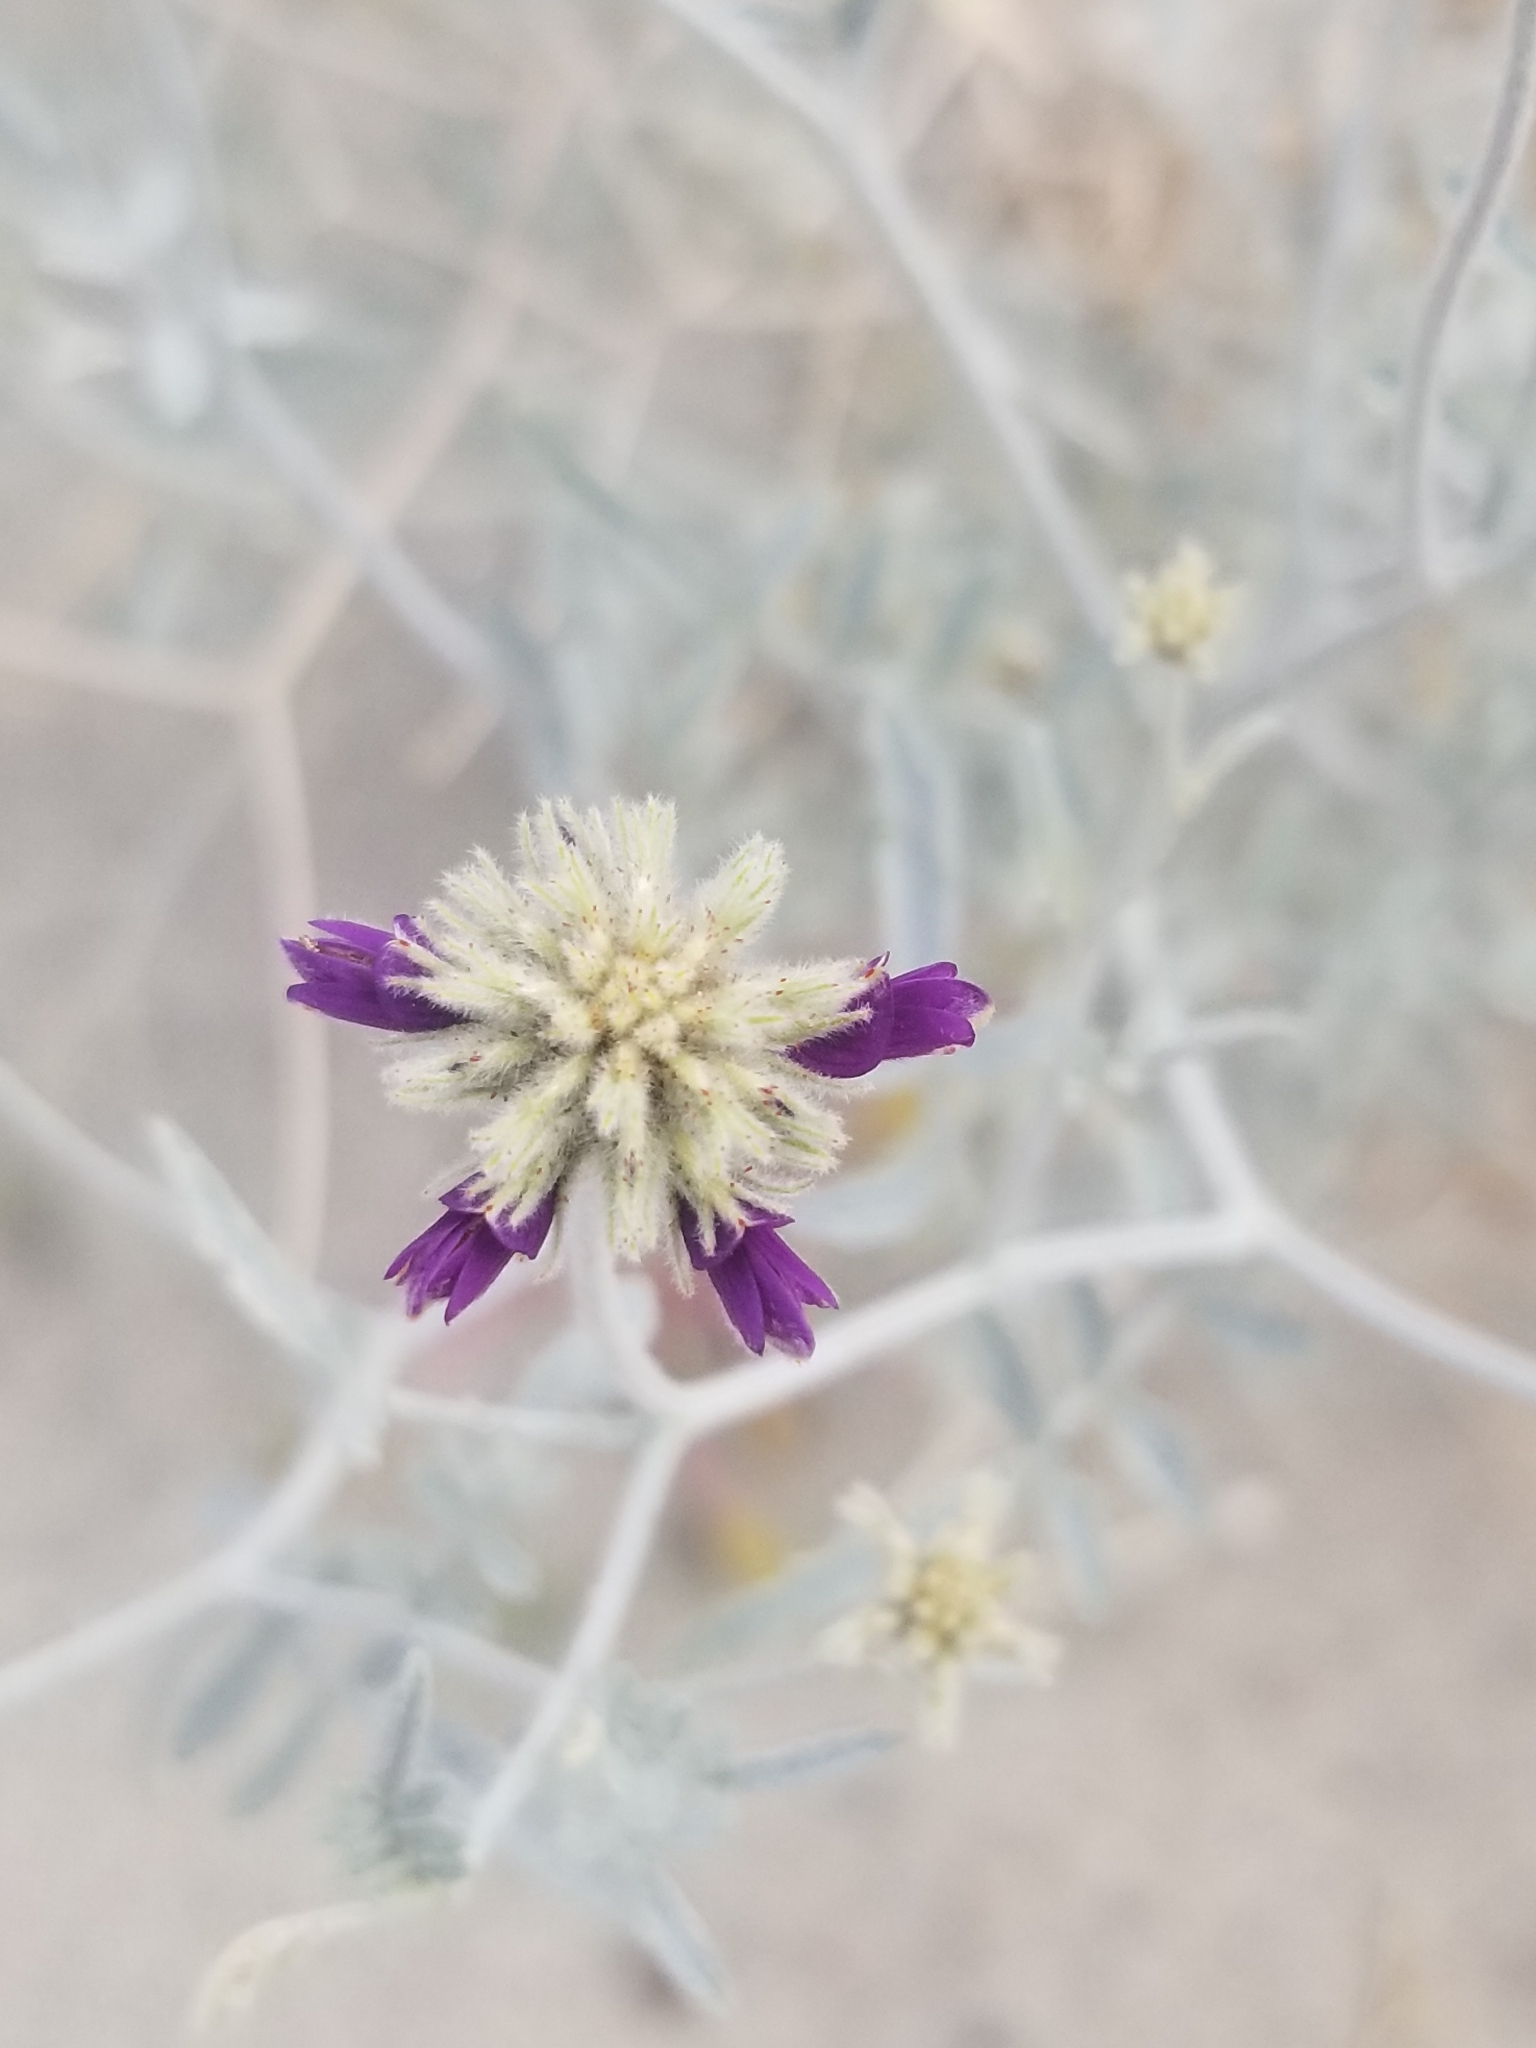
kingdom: Plantae
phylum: Tracheophyta
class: Magnoliopsida
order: Fabales
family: Fabaceae
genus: Psorothamnus
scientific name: Psorothamnus emoryi
